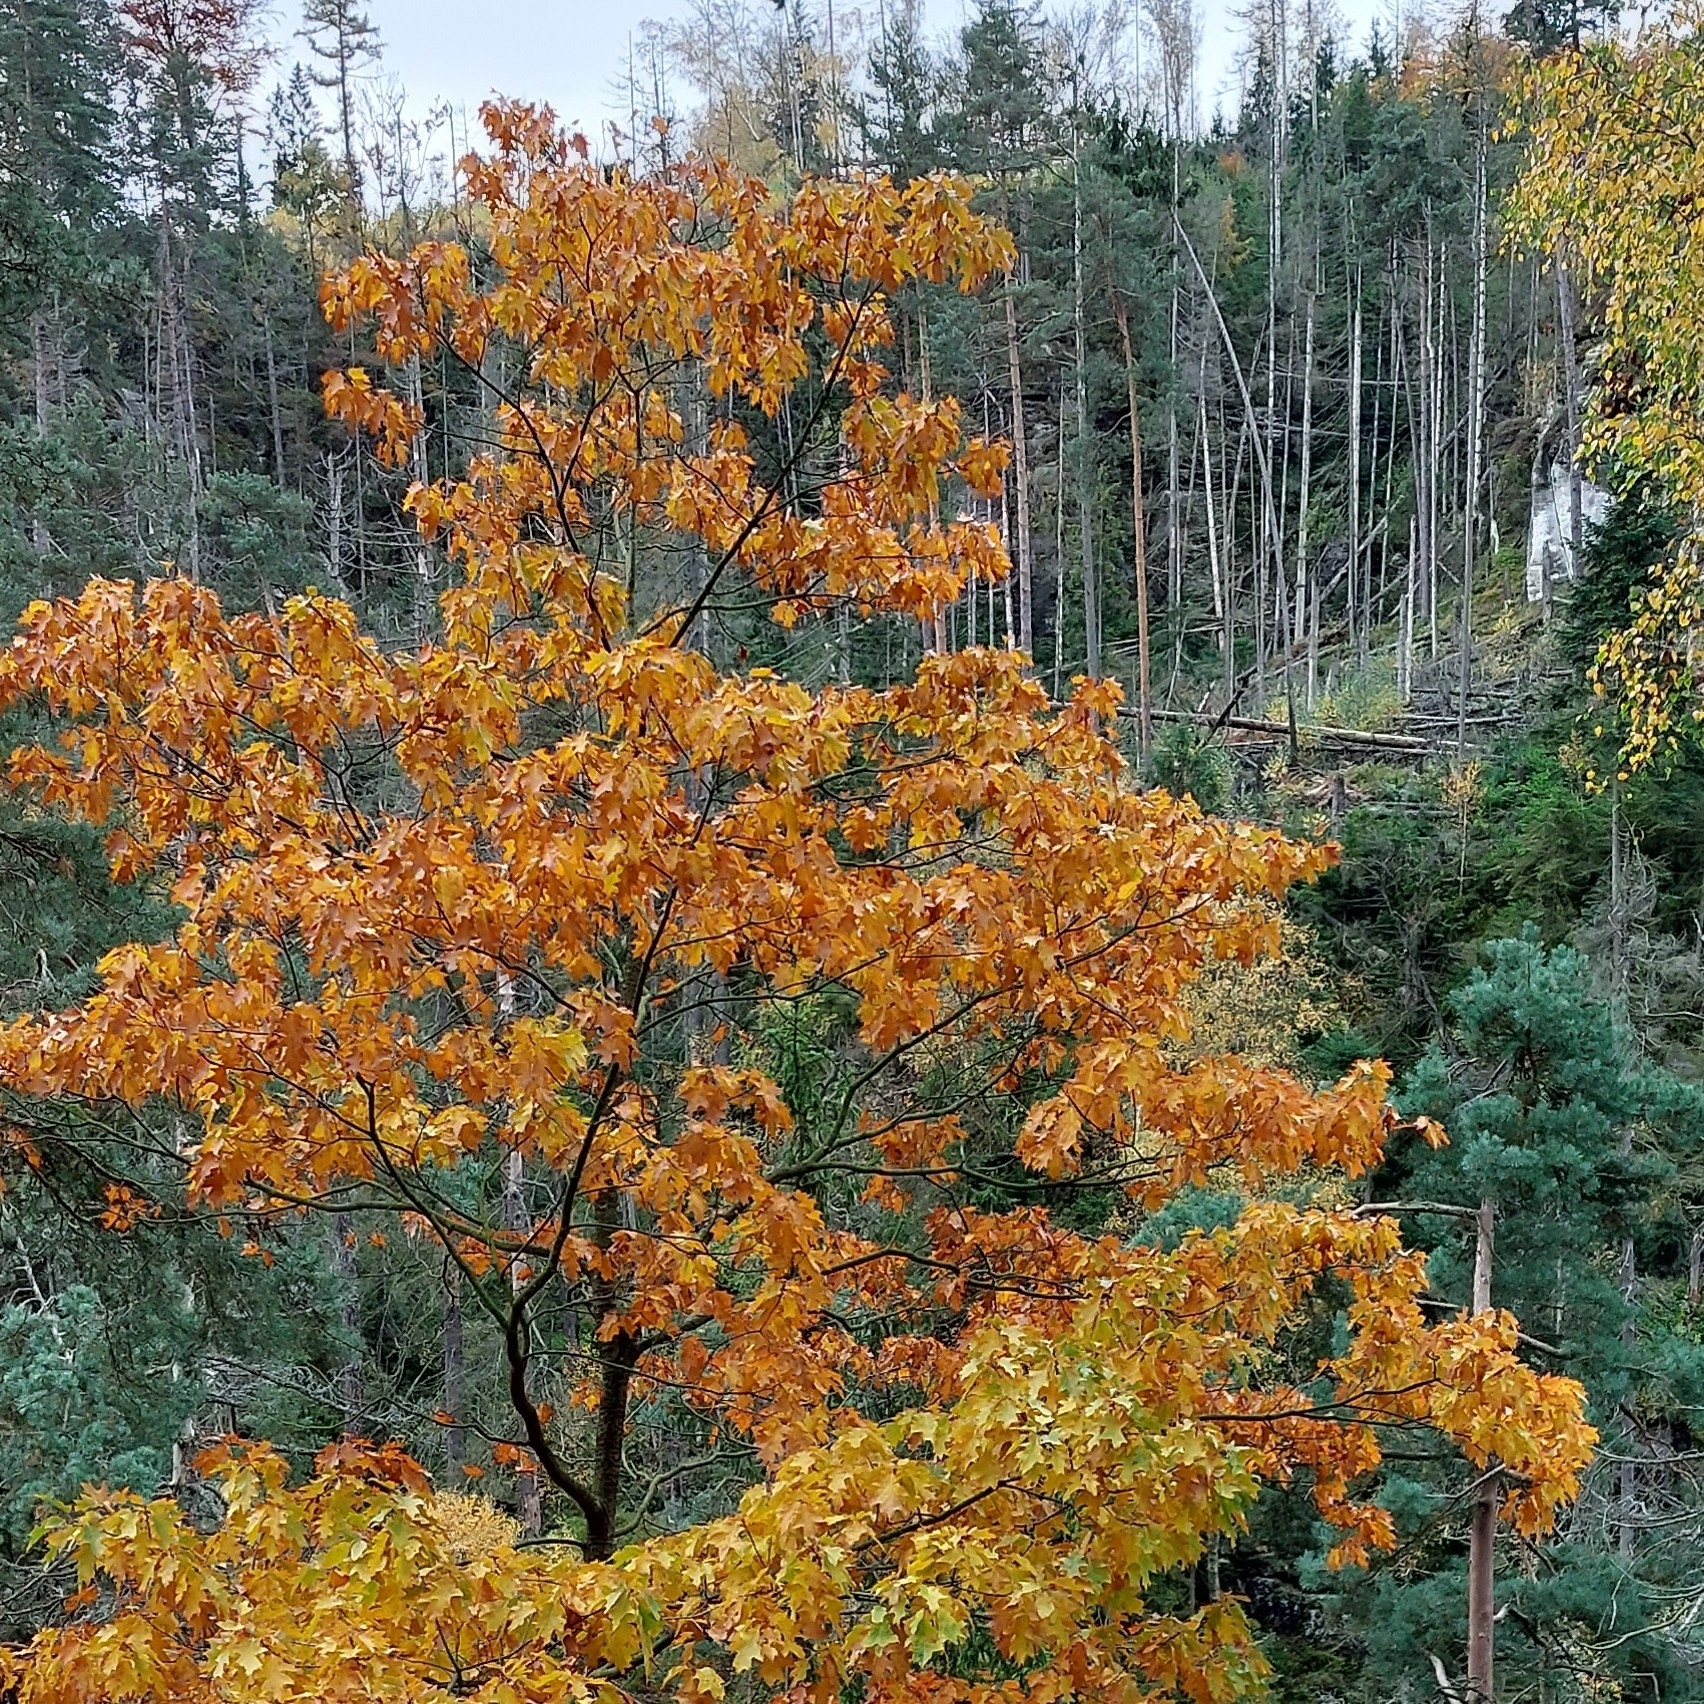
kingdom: Plantae
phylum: Tracheophyta
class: Magnoliopsida
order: Fagales
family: Fagaceae
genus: Quercus
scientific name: Quercus rubra
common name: Red oak
